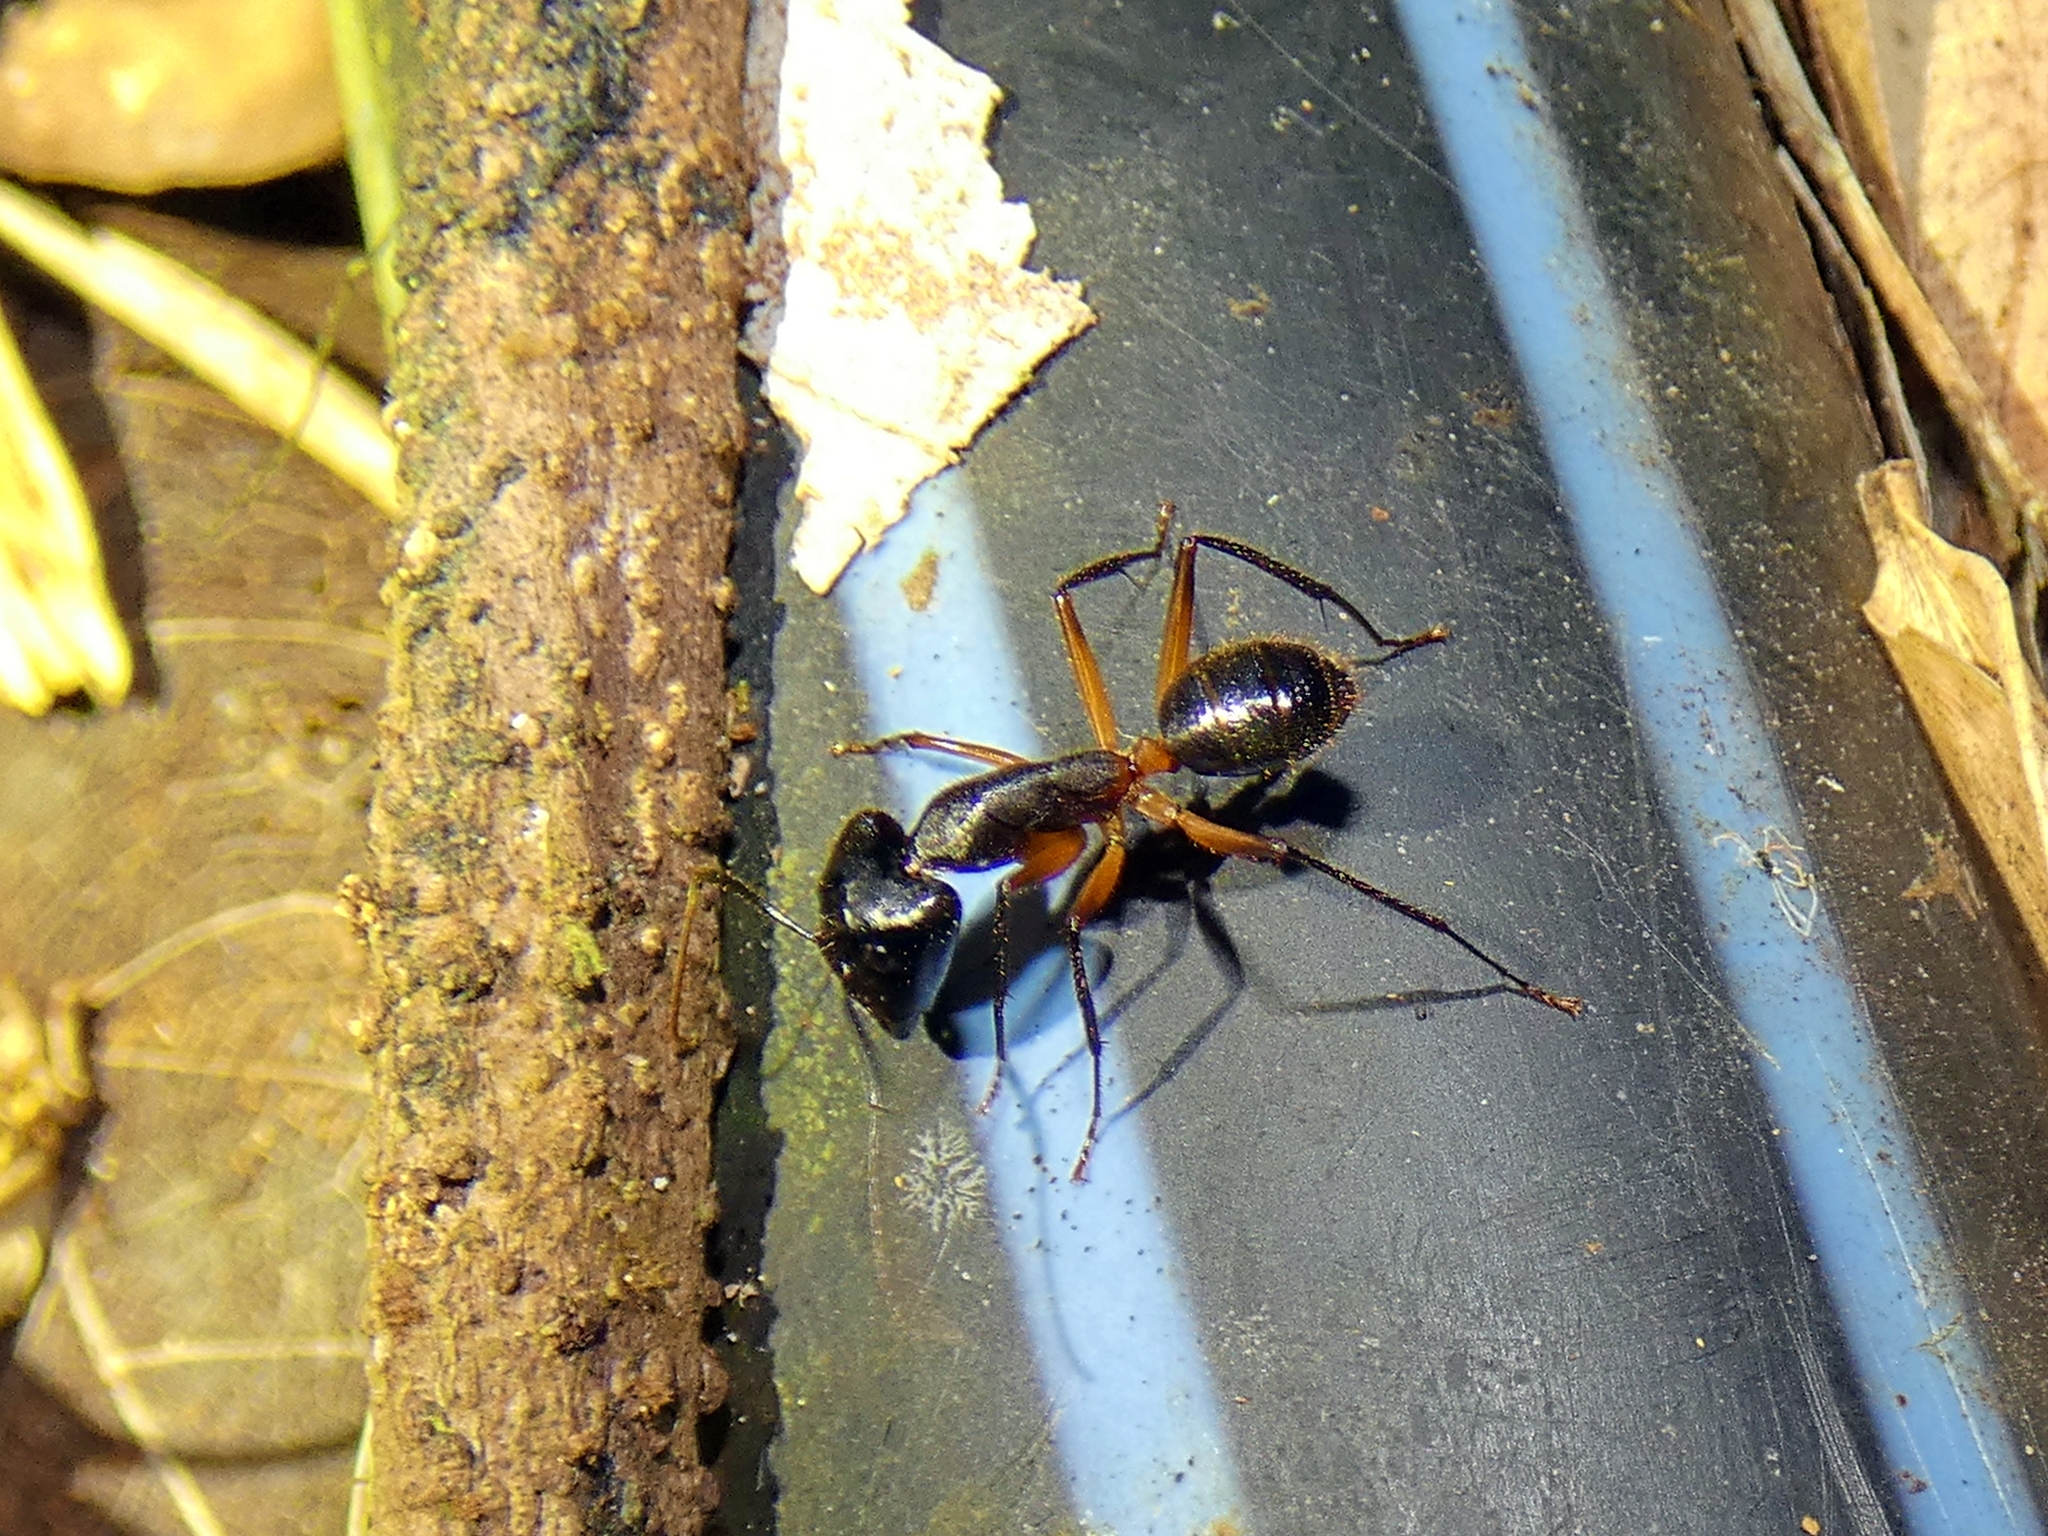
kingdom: Animalia
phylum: Arthropoda
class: Insecta
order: Hymenoptera
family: Formicidae
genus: Camponotus
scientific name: Camponotus
